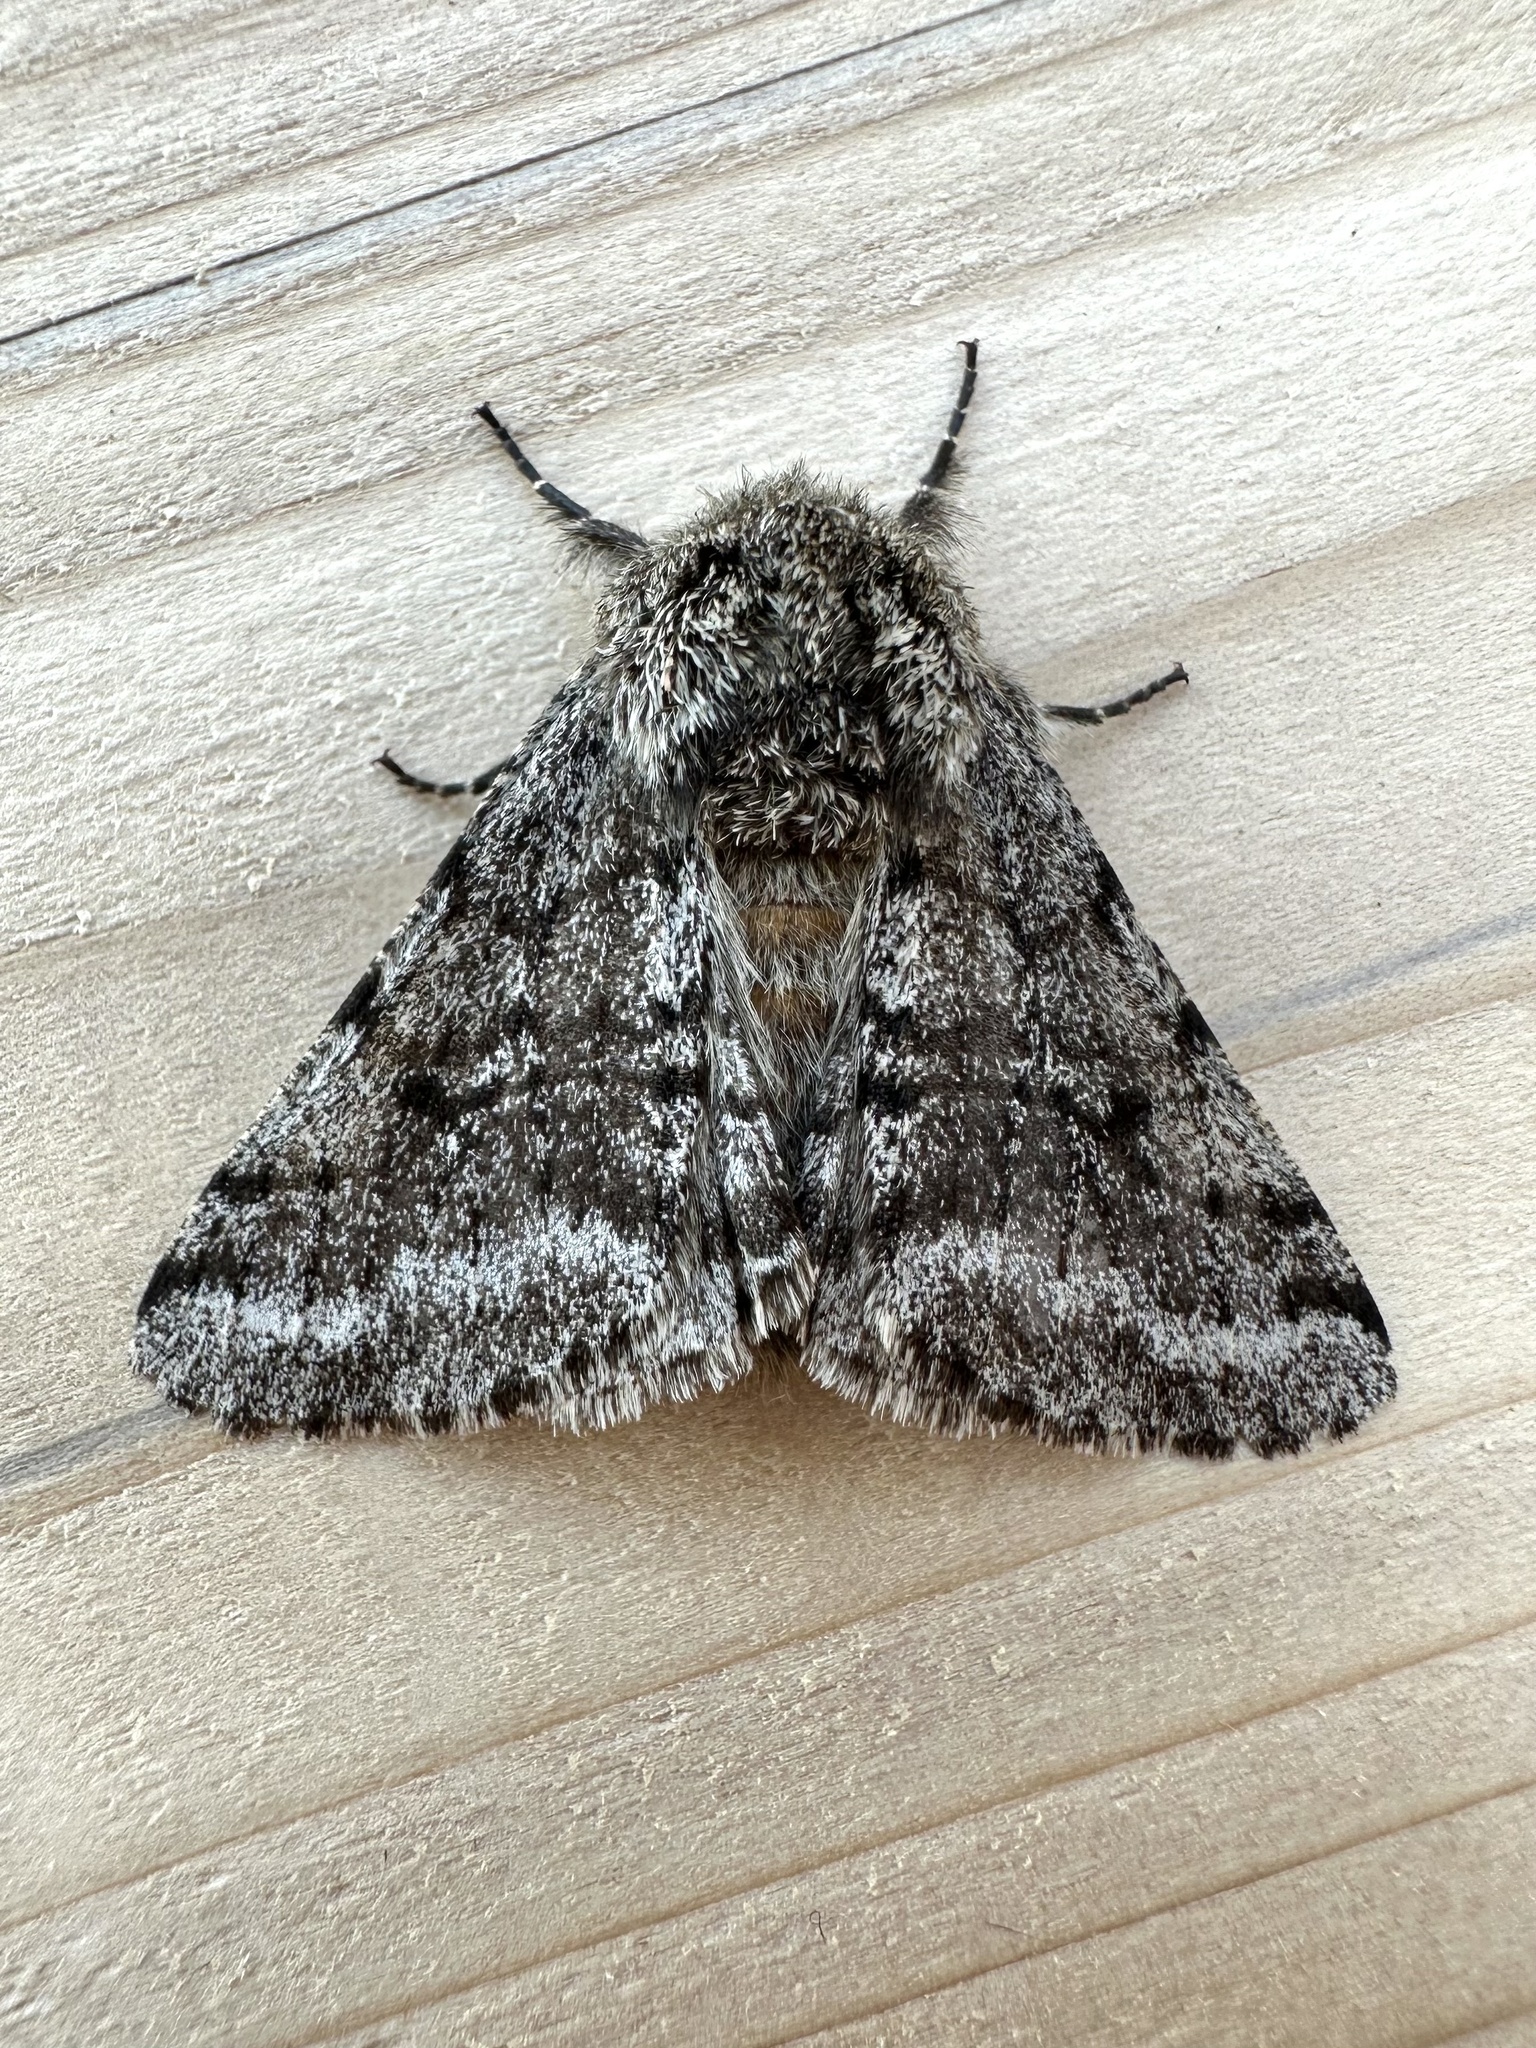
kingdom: Animalia
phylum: Arthropoda
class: Insecta
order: Lepidoptera
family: Geometridae
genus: Lycia
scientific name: Lycia ursaria
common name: Stout spanworm
